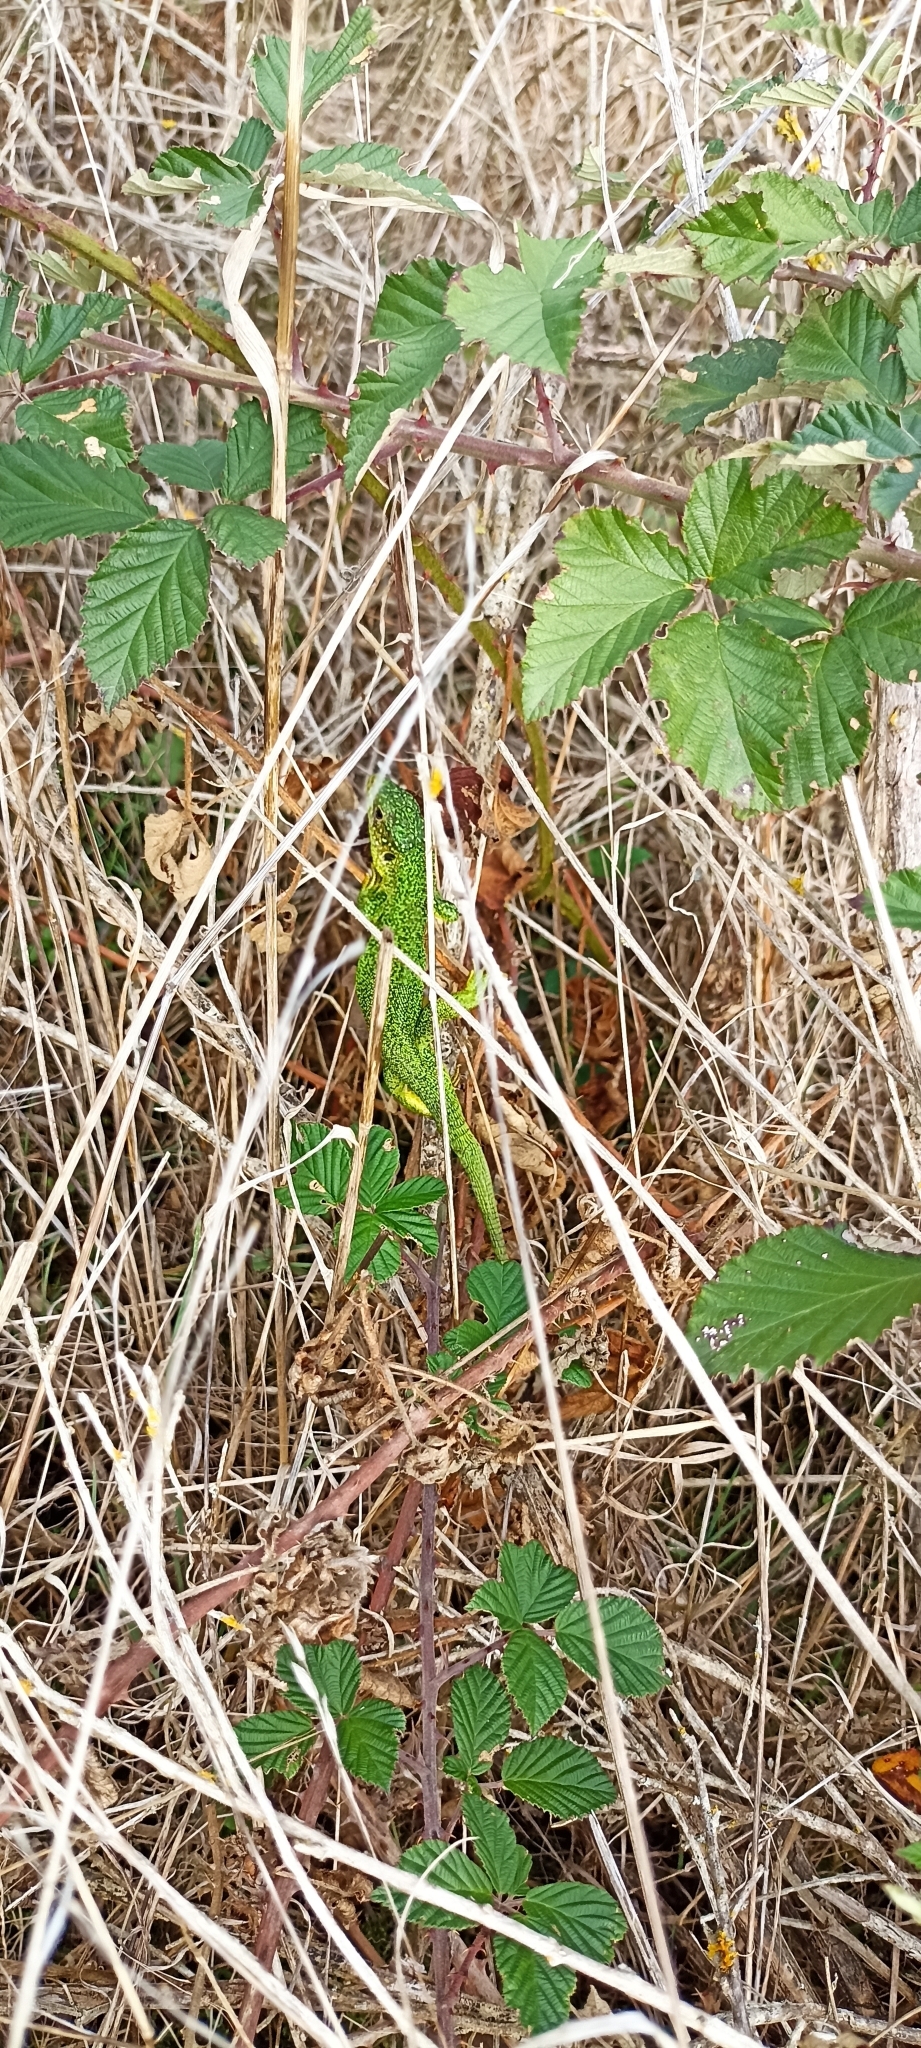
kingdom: Animalia
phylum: Chordata
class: Squamata
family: Lacertidae
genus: Lacerta
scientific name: Lacerta bilineata
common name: Western green lizard
